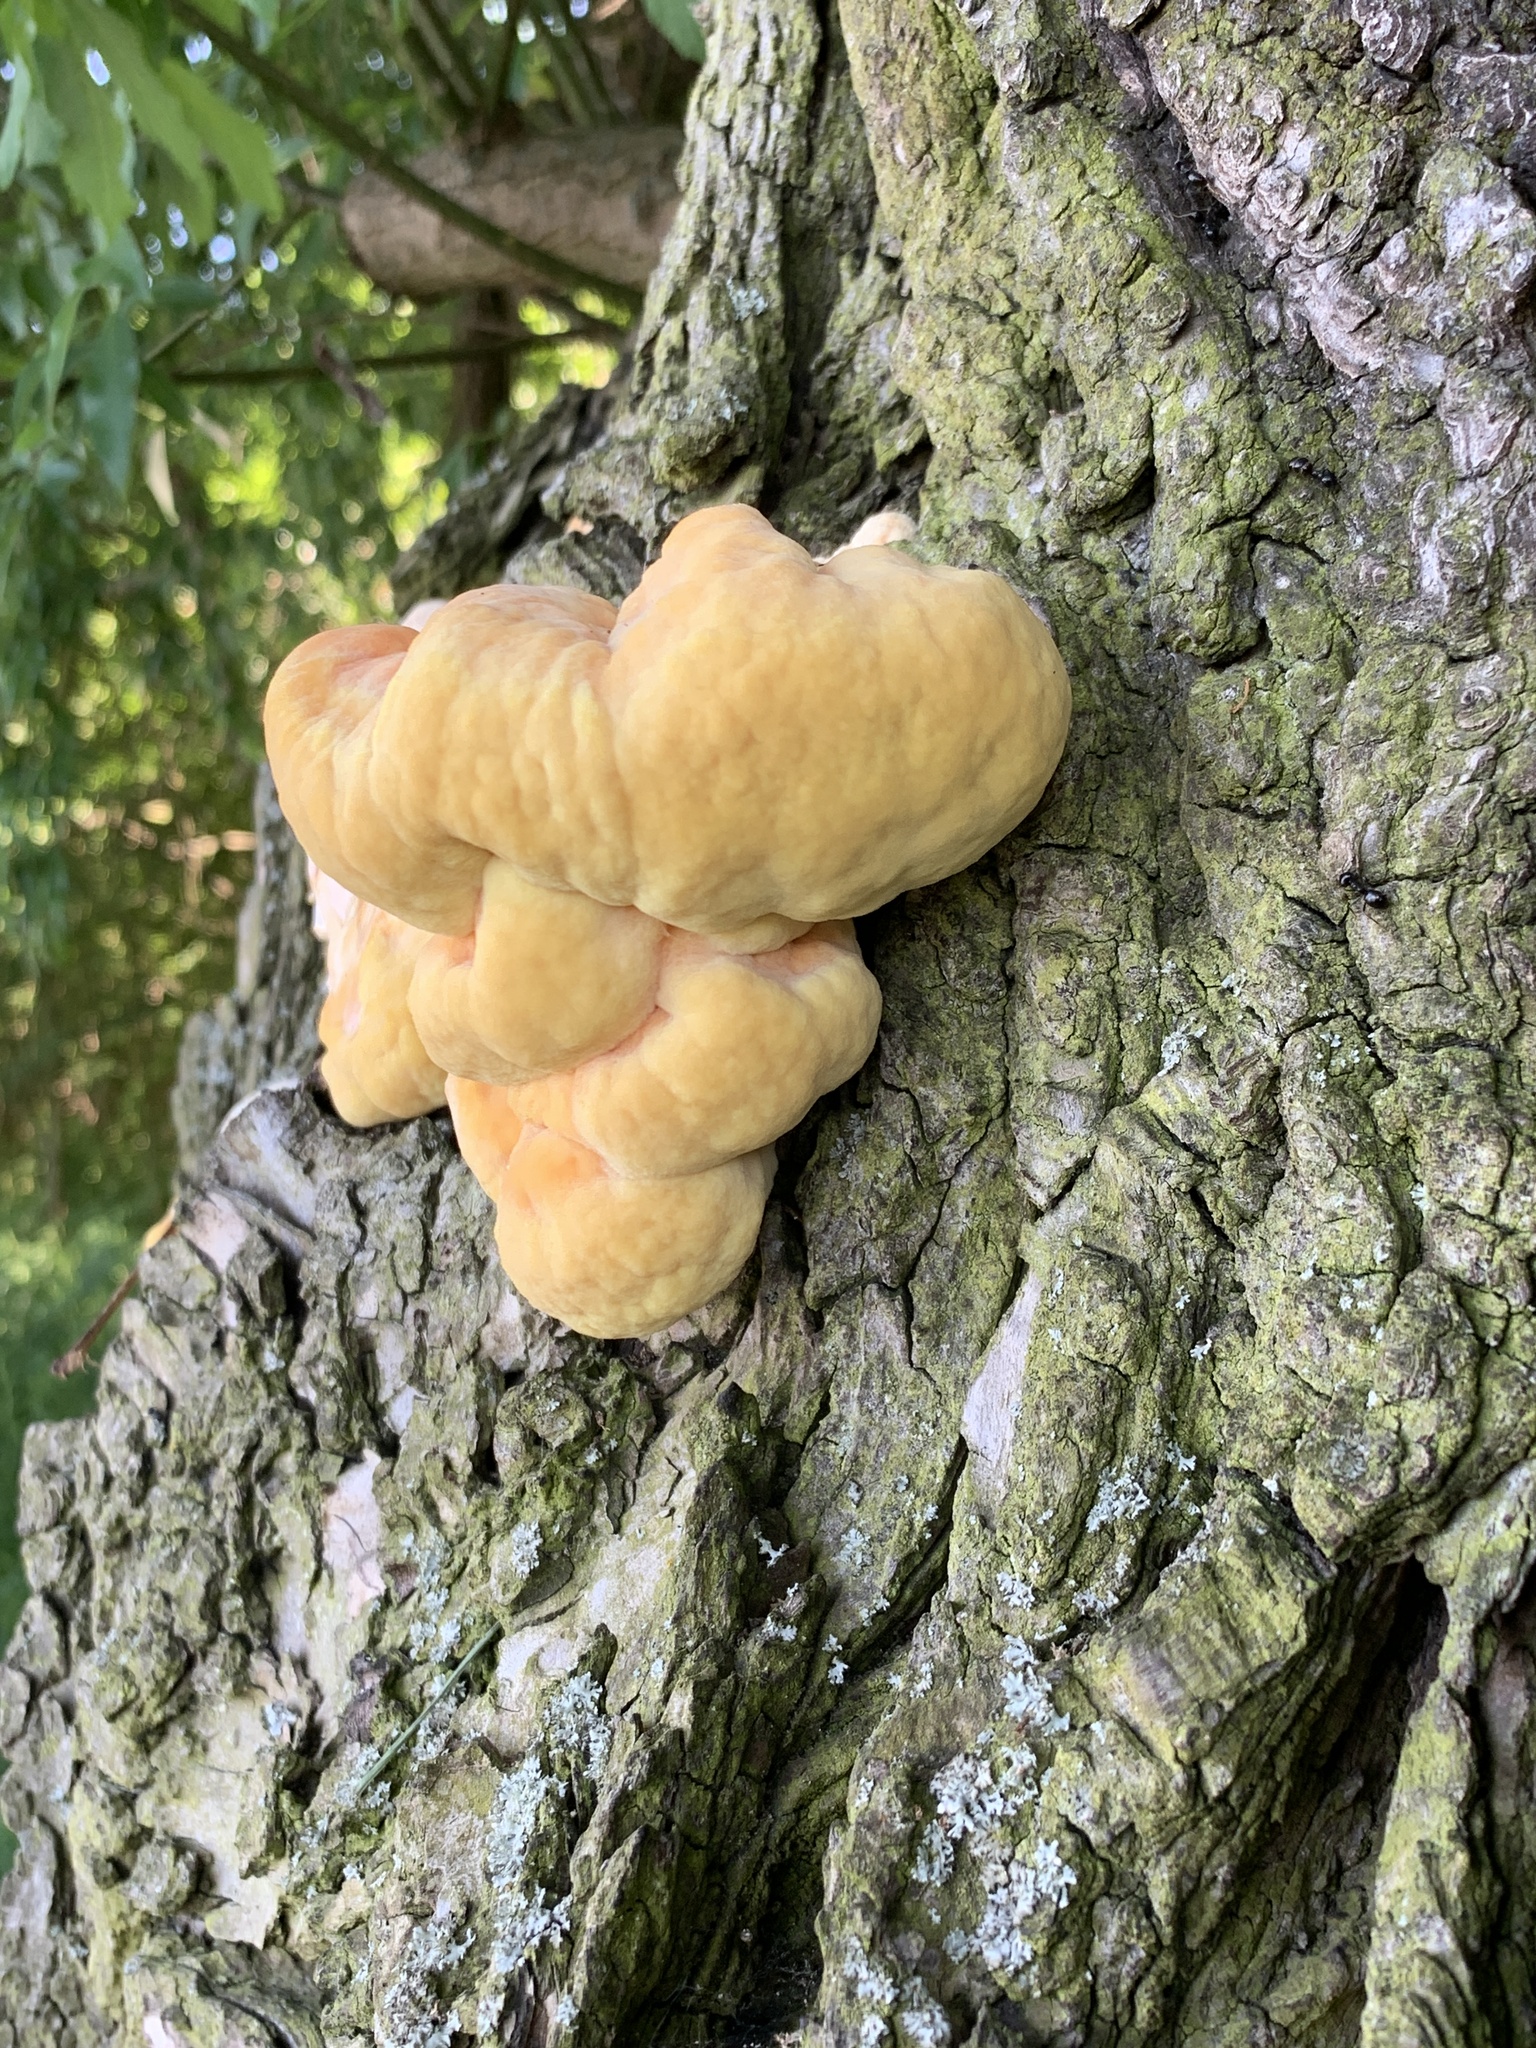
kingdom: Fungi
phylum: Basidiomycota
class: Agaricomycetes
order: Polyporales
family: Laetiporaceae
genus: Laetiporus
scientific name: Laetiporus sulphureus
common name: Chicken of the woods
